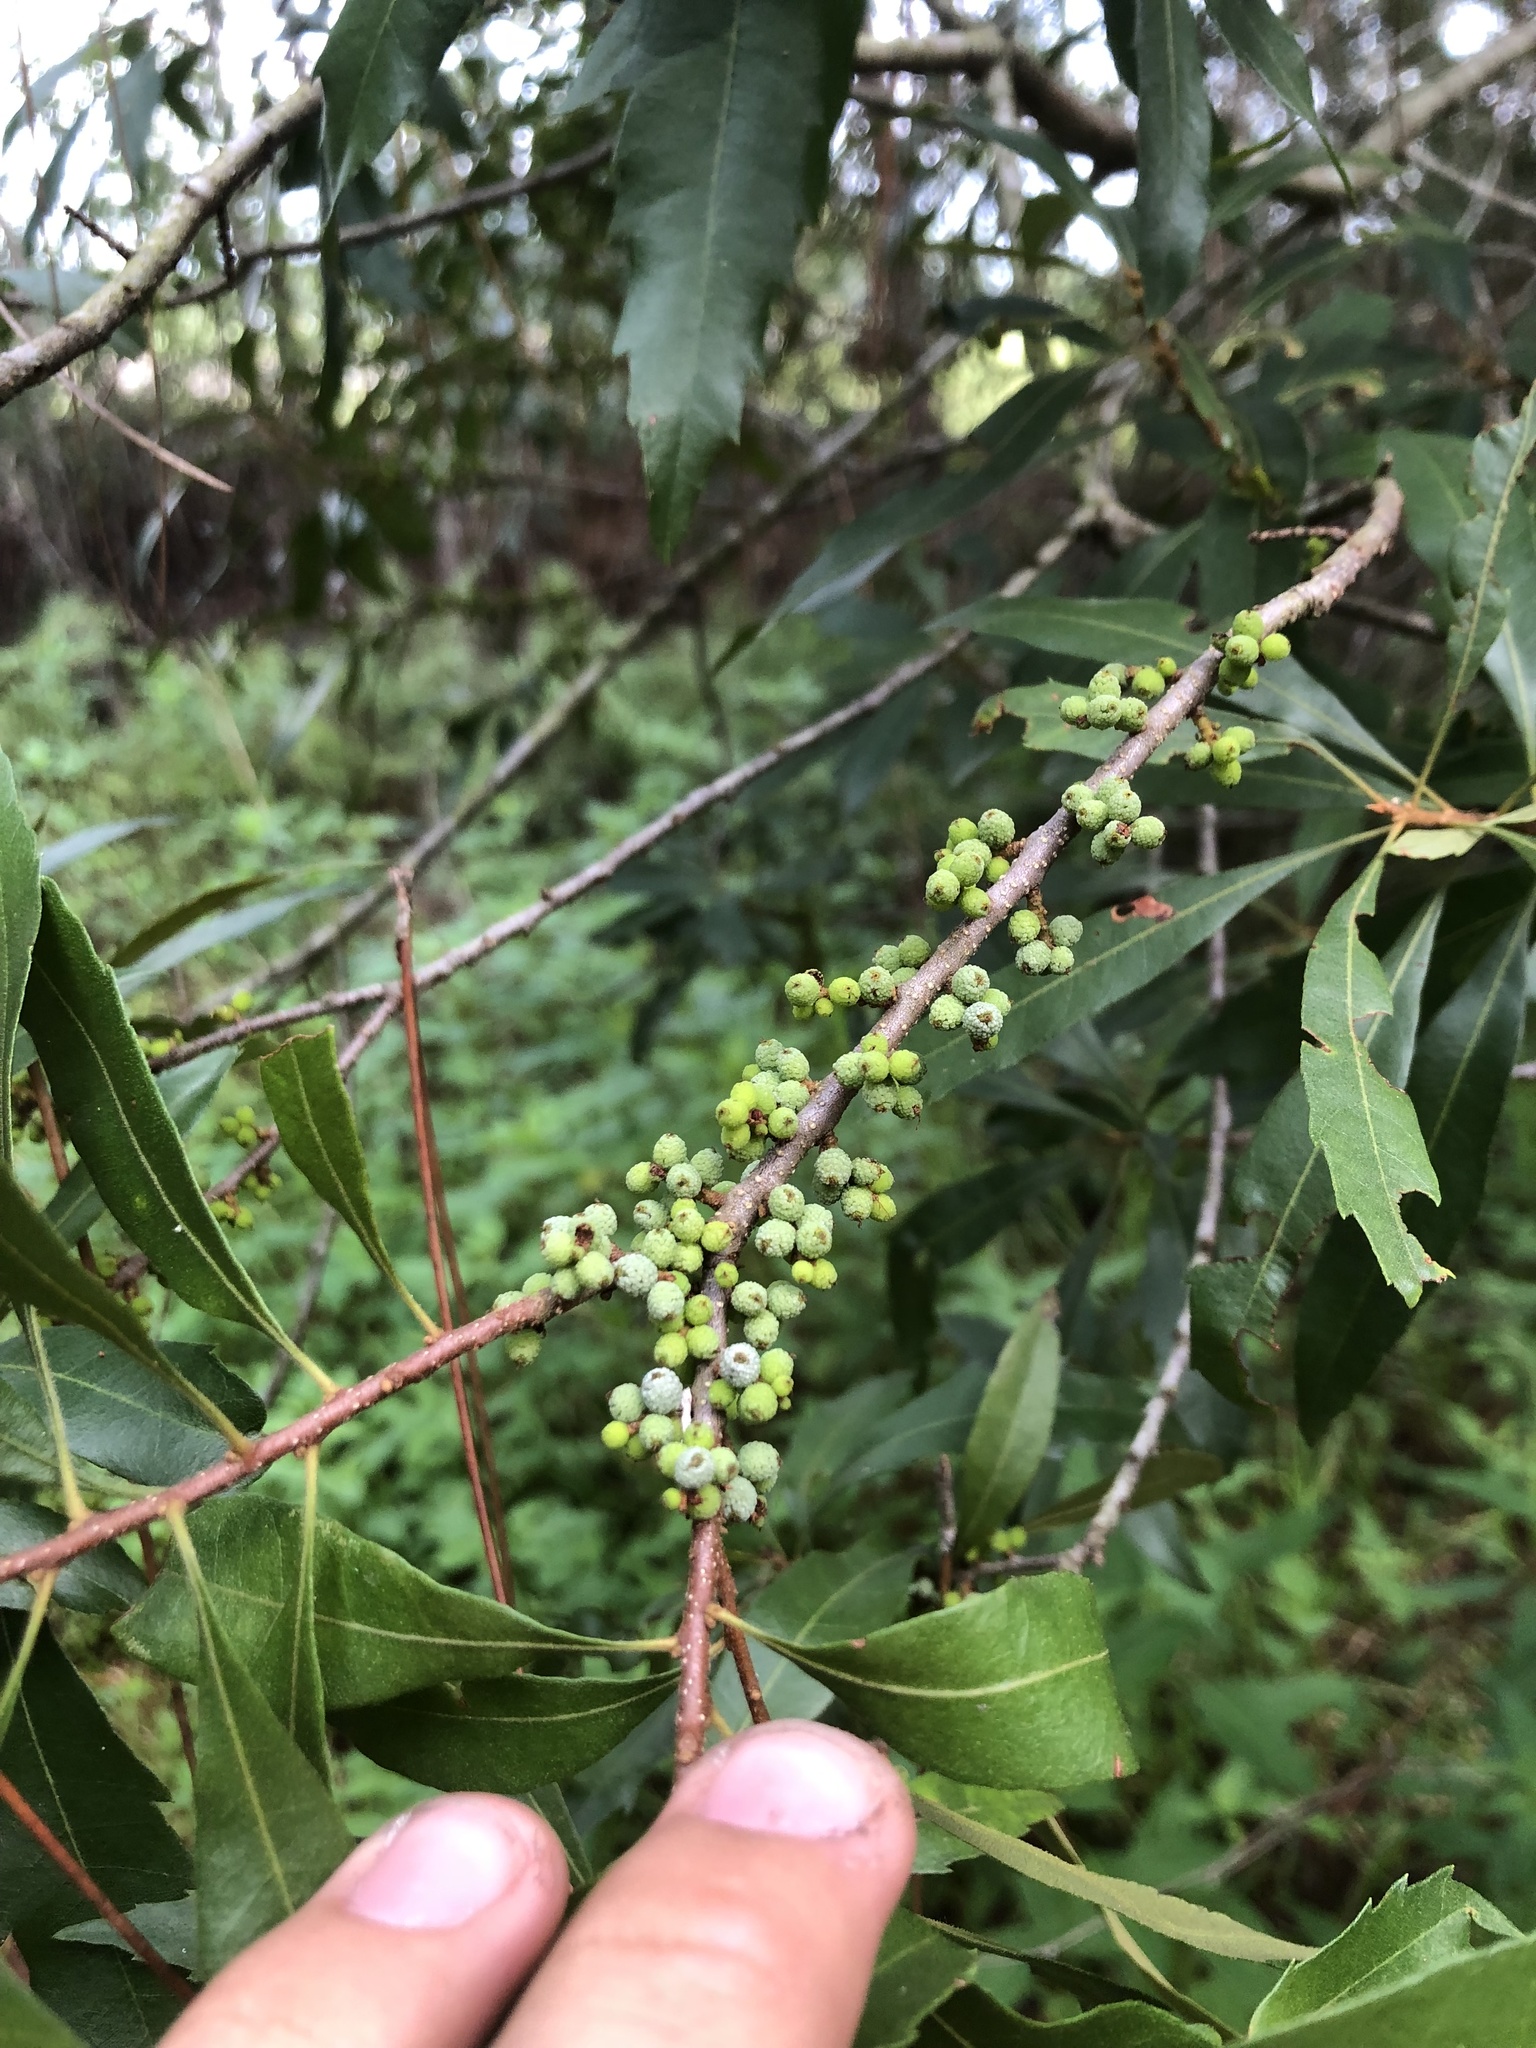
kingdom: Plantae
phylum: Tracheophyta
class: Magnoliopsida
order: Fagales
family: Myricaceae
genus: Morella
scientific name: Morella cerifera
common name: Wax myrtle
